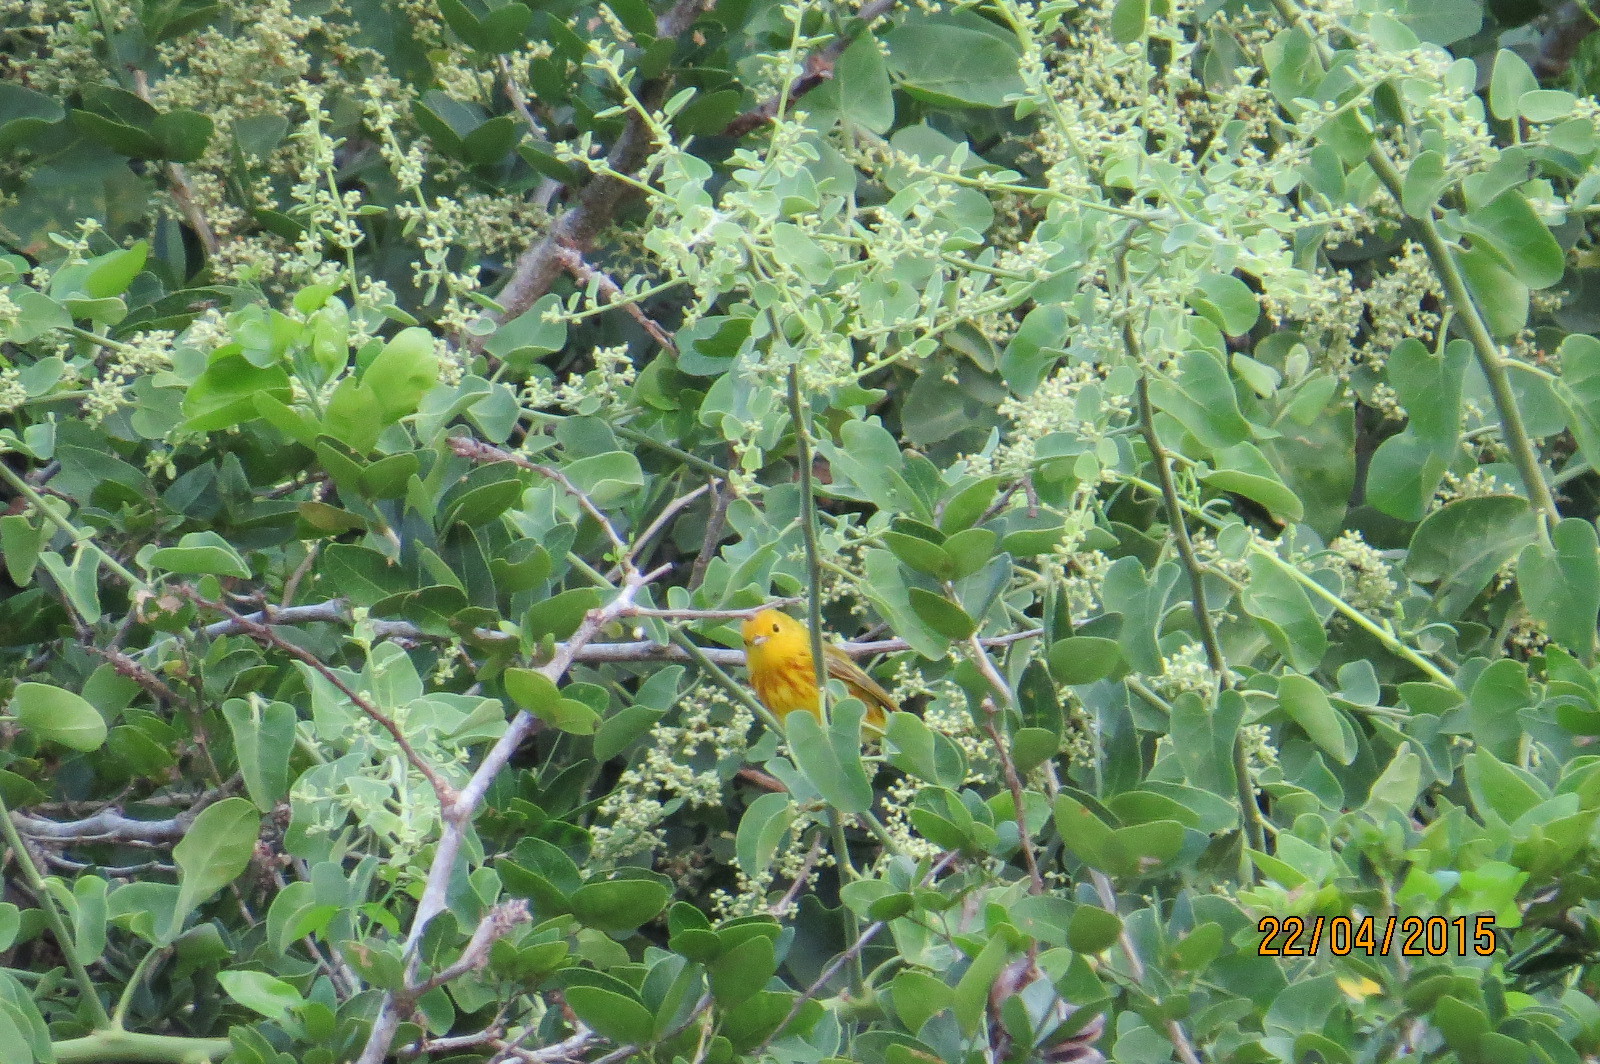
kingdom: Animalia
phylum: Chordata
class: Aves
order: Passeriformes
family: Parulidae
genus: Setophaga
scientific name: Setophaga petechia
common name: Yellow warbler
